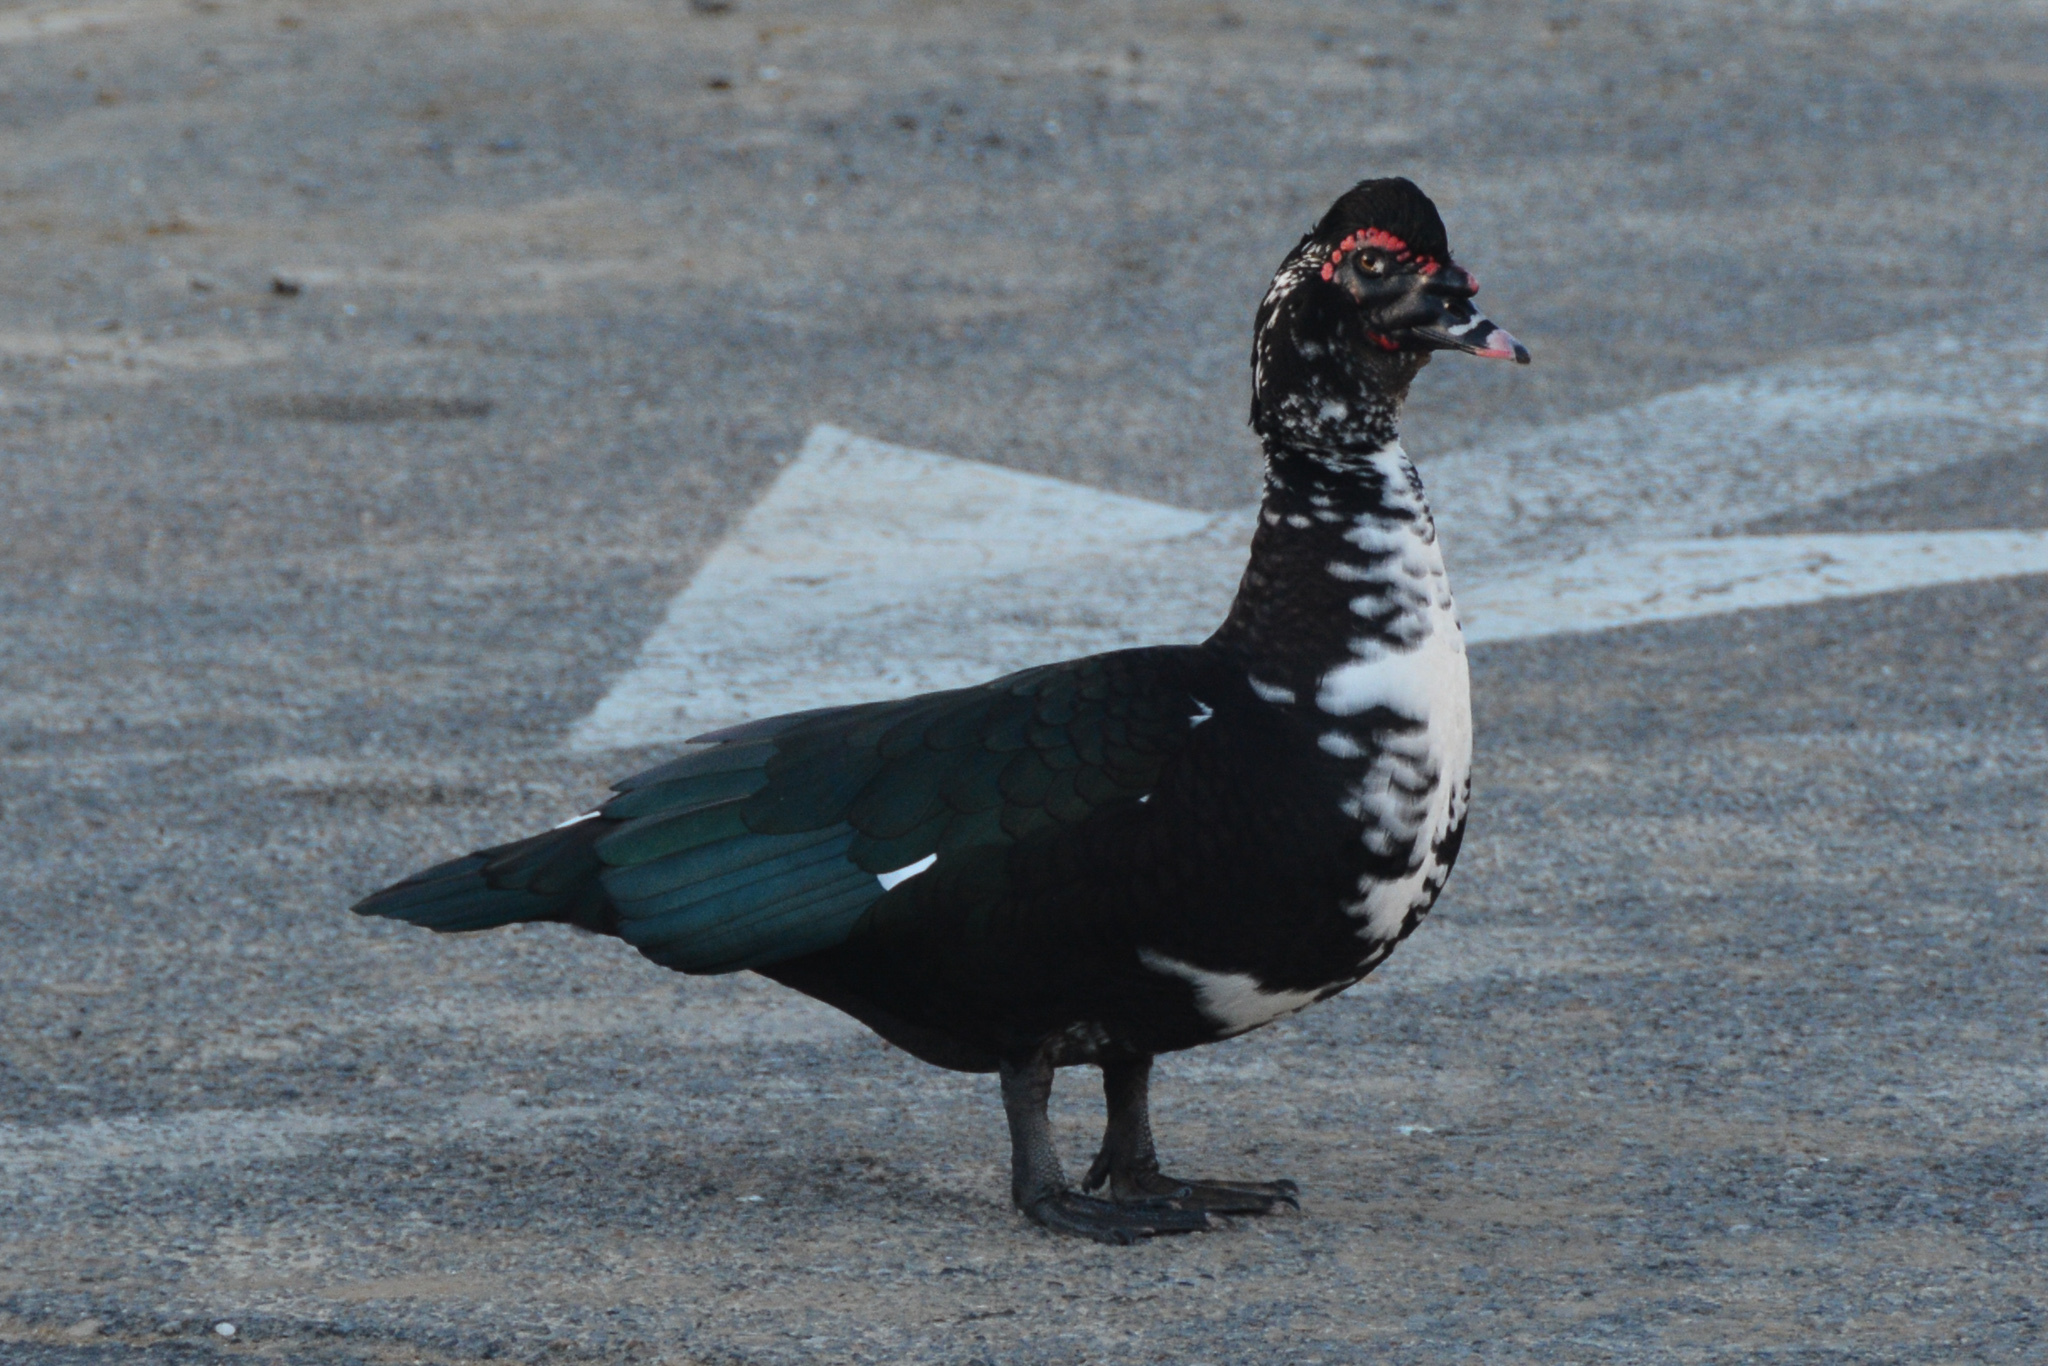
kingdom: Animalia
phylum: Chordata
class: Aves
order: Anseriformes
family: Anatidae
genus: Cairina
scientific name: Cairina moschata
